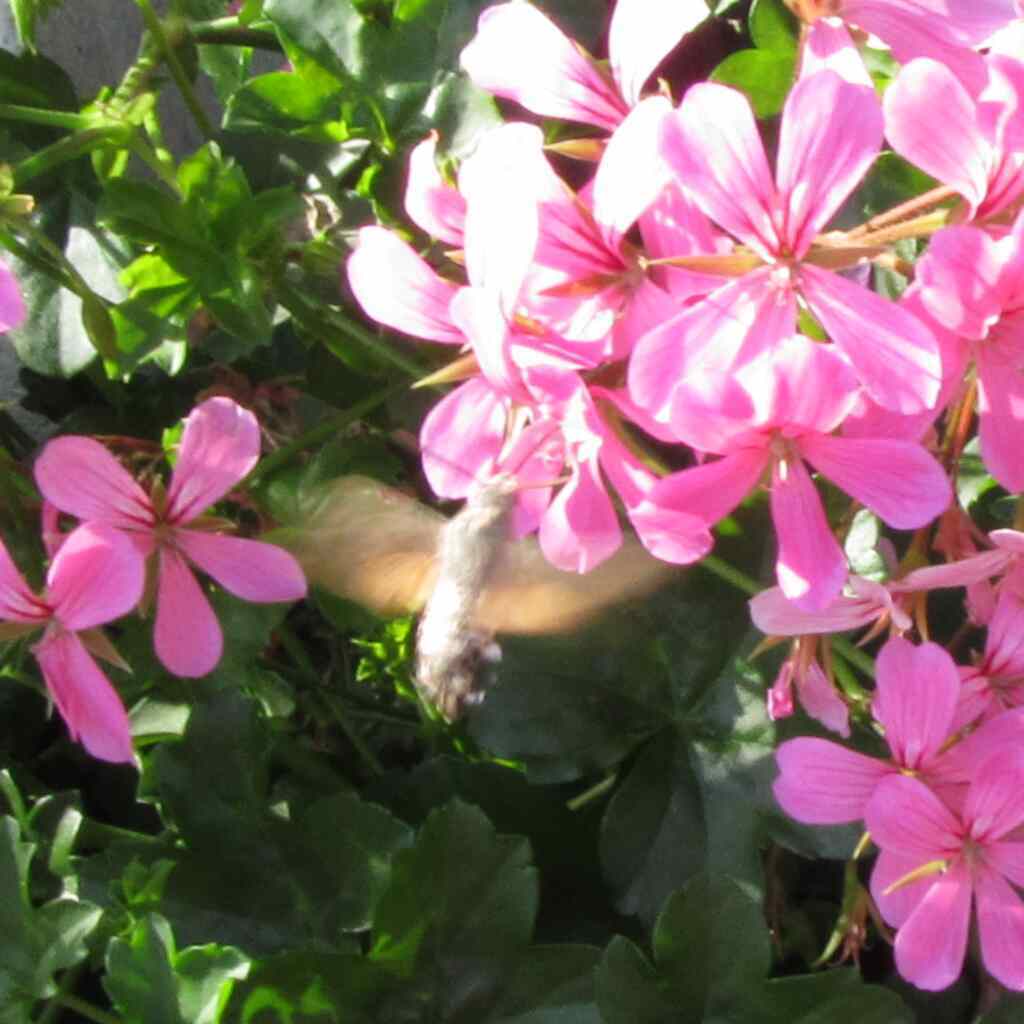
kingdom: Animalia
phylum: Arthropoda
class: Insecta
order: Lepidoptera
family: Sphingidae
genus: Macroglossum
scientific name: Macroglossum stellatarum
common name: Humming-bird hawk-moth
